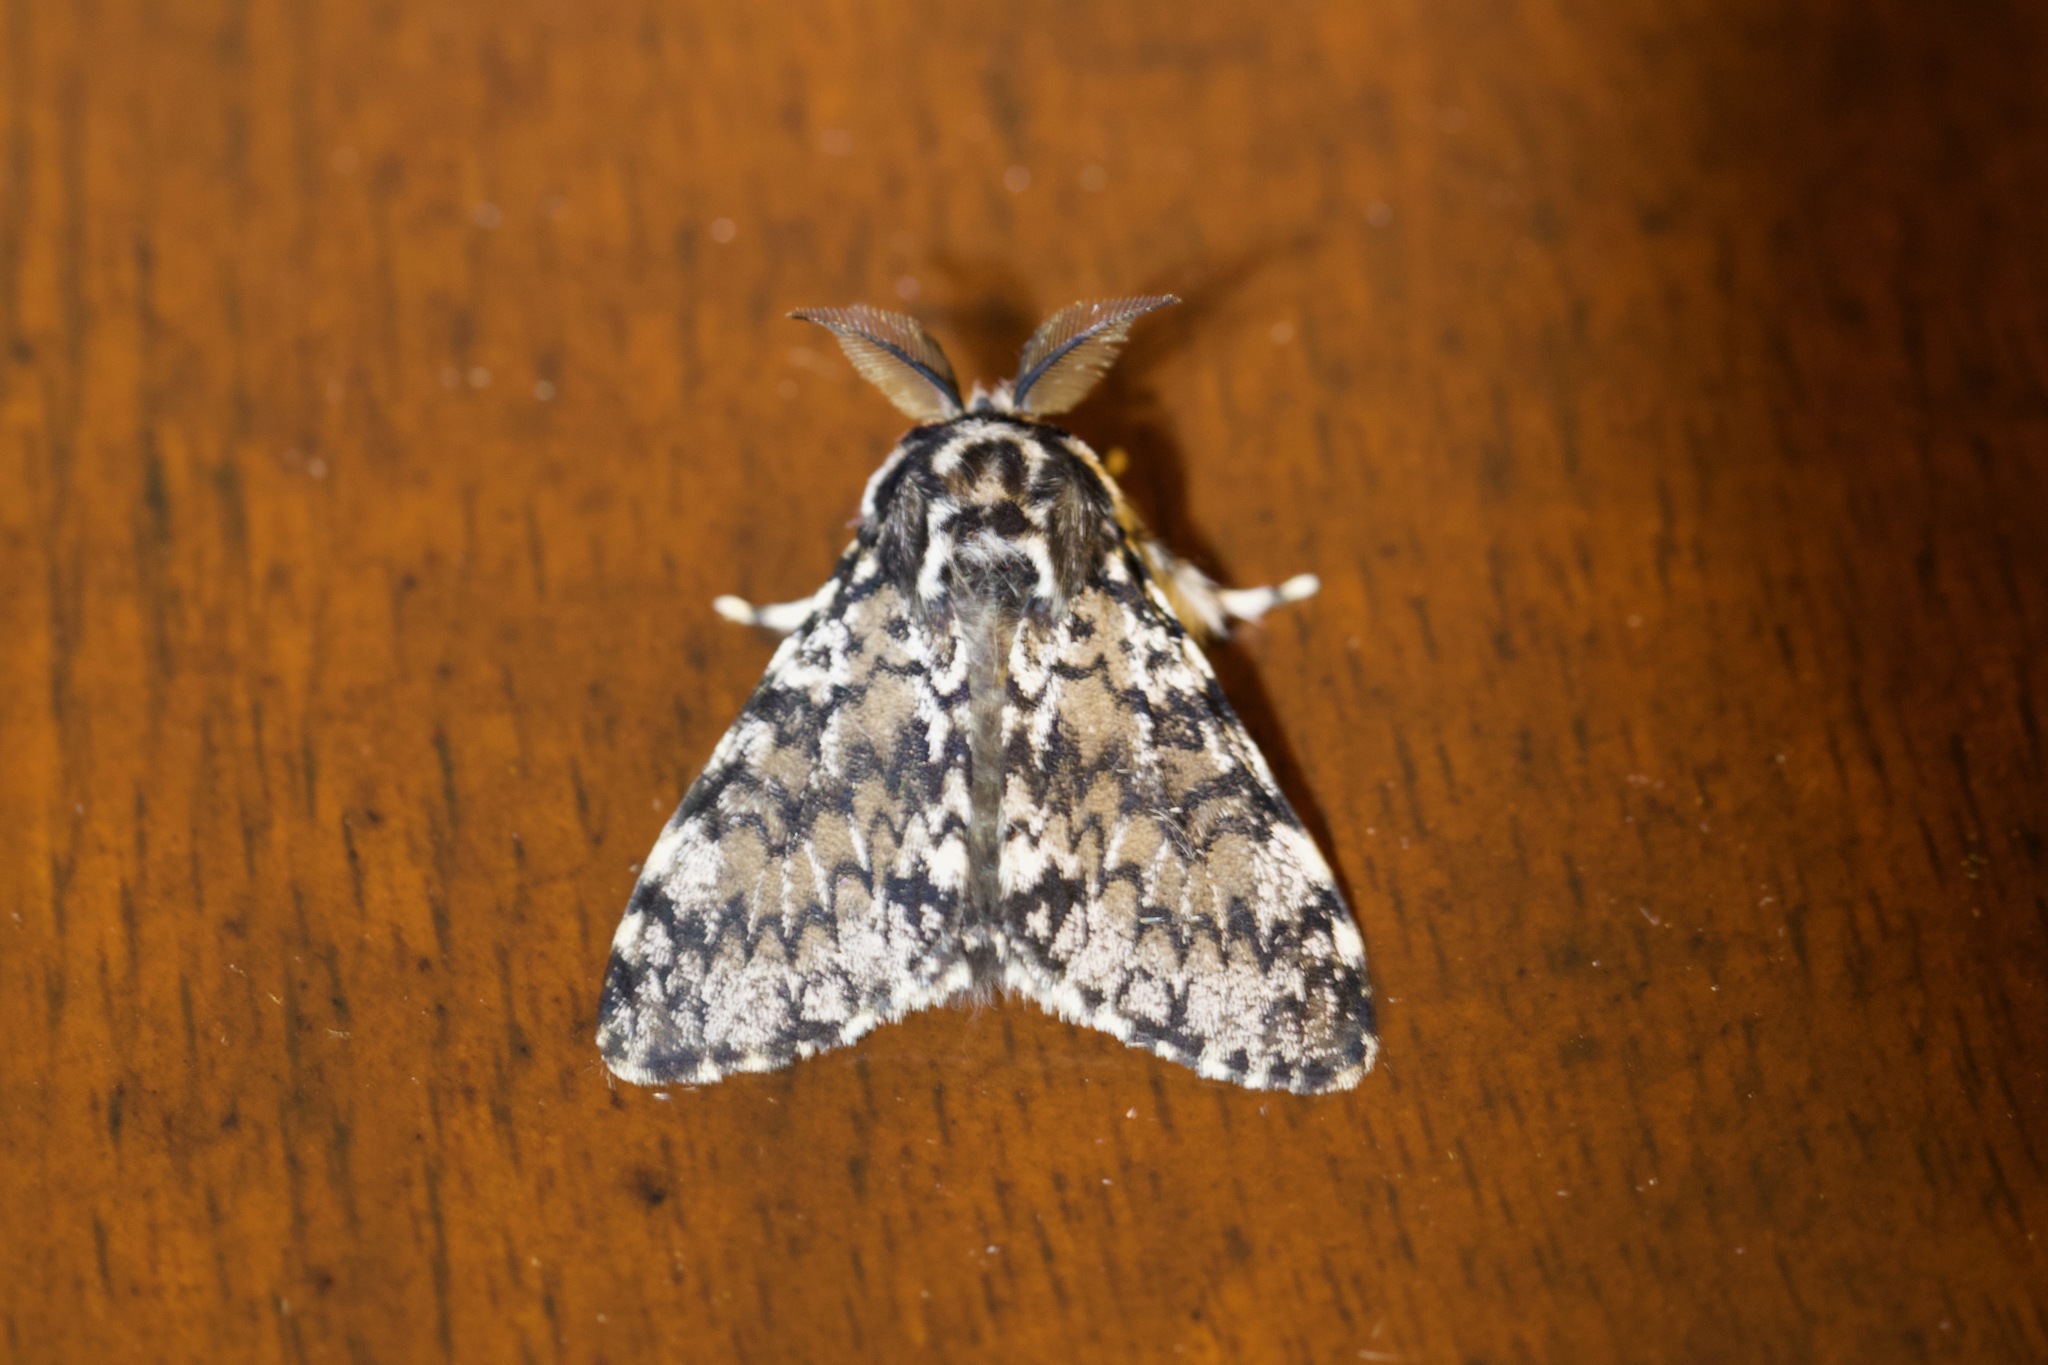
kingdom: Animalia
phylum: Arthropoda
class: Insecta
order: Lepidoptera
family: Erebidae
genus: Lymantria
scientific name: Lymantria kettlewelli
